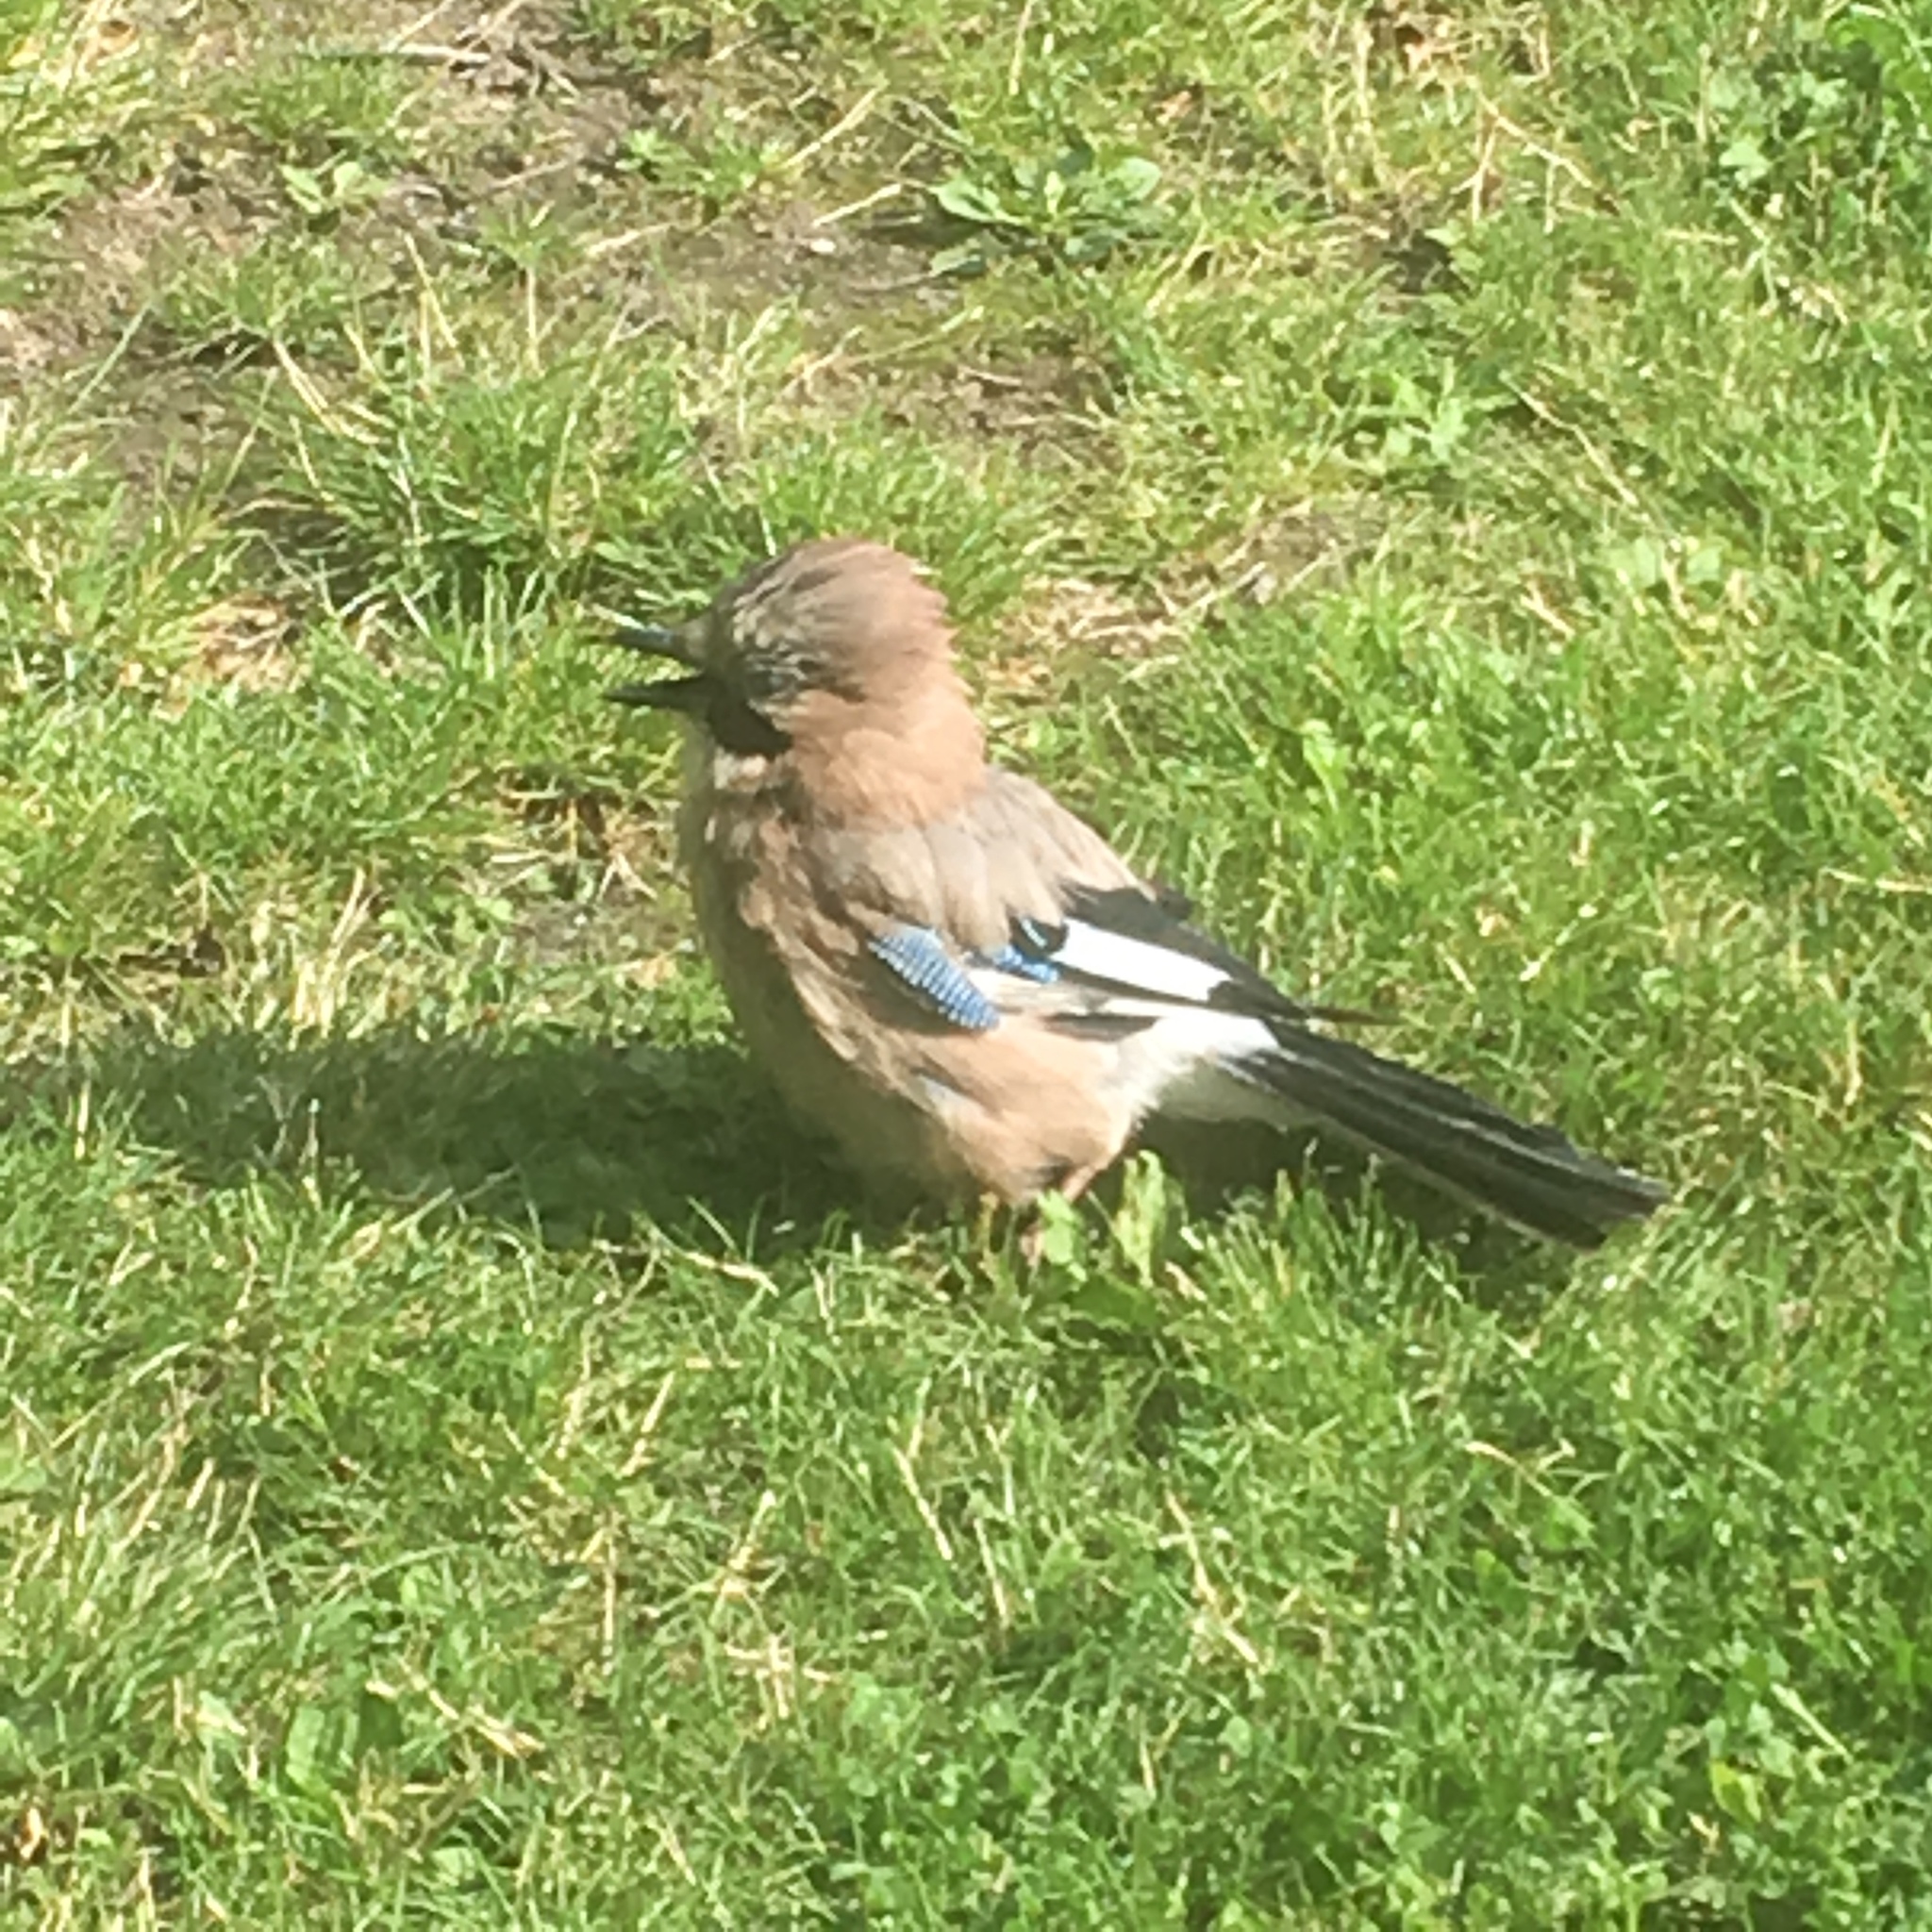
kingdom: Animalia
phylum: Chordata
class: Aves
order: Passeriformes
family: Corvidae
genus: Garrulus
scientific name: Garrulus glandarius
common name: Eurasian jay
